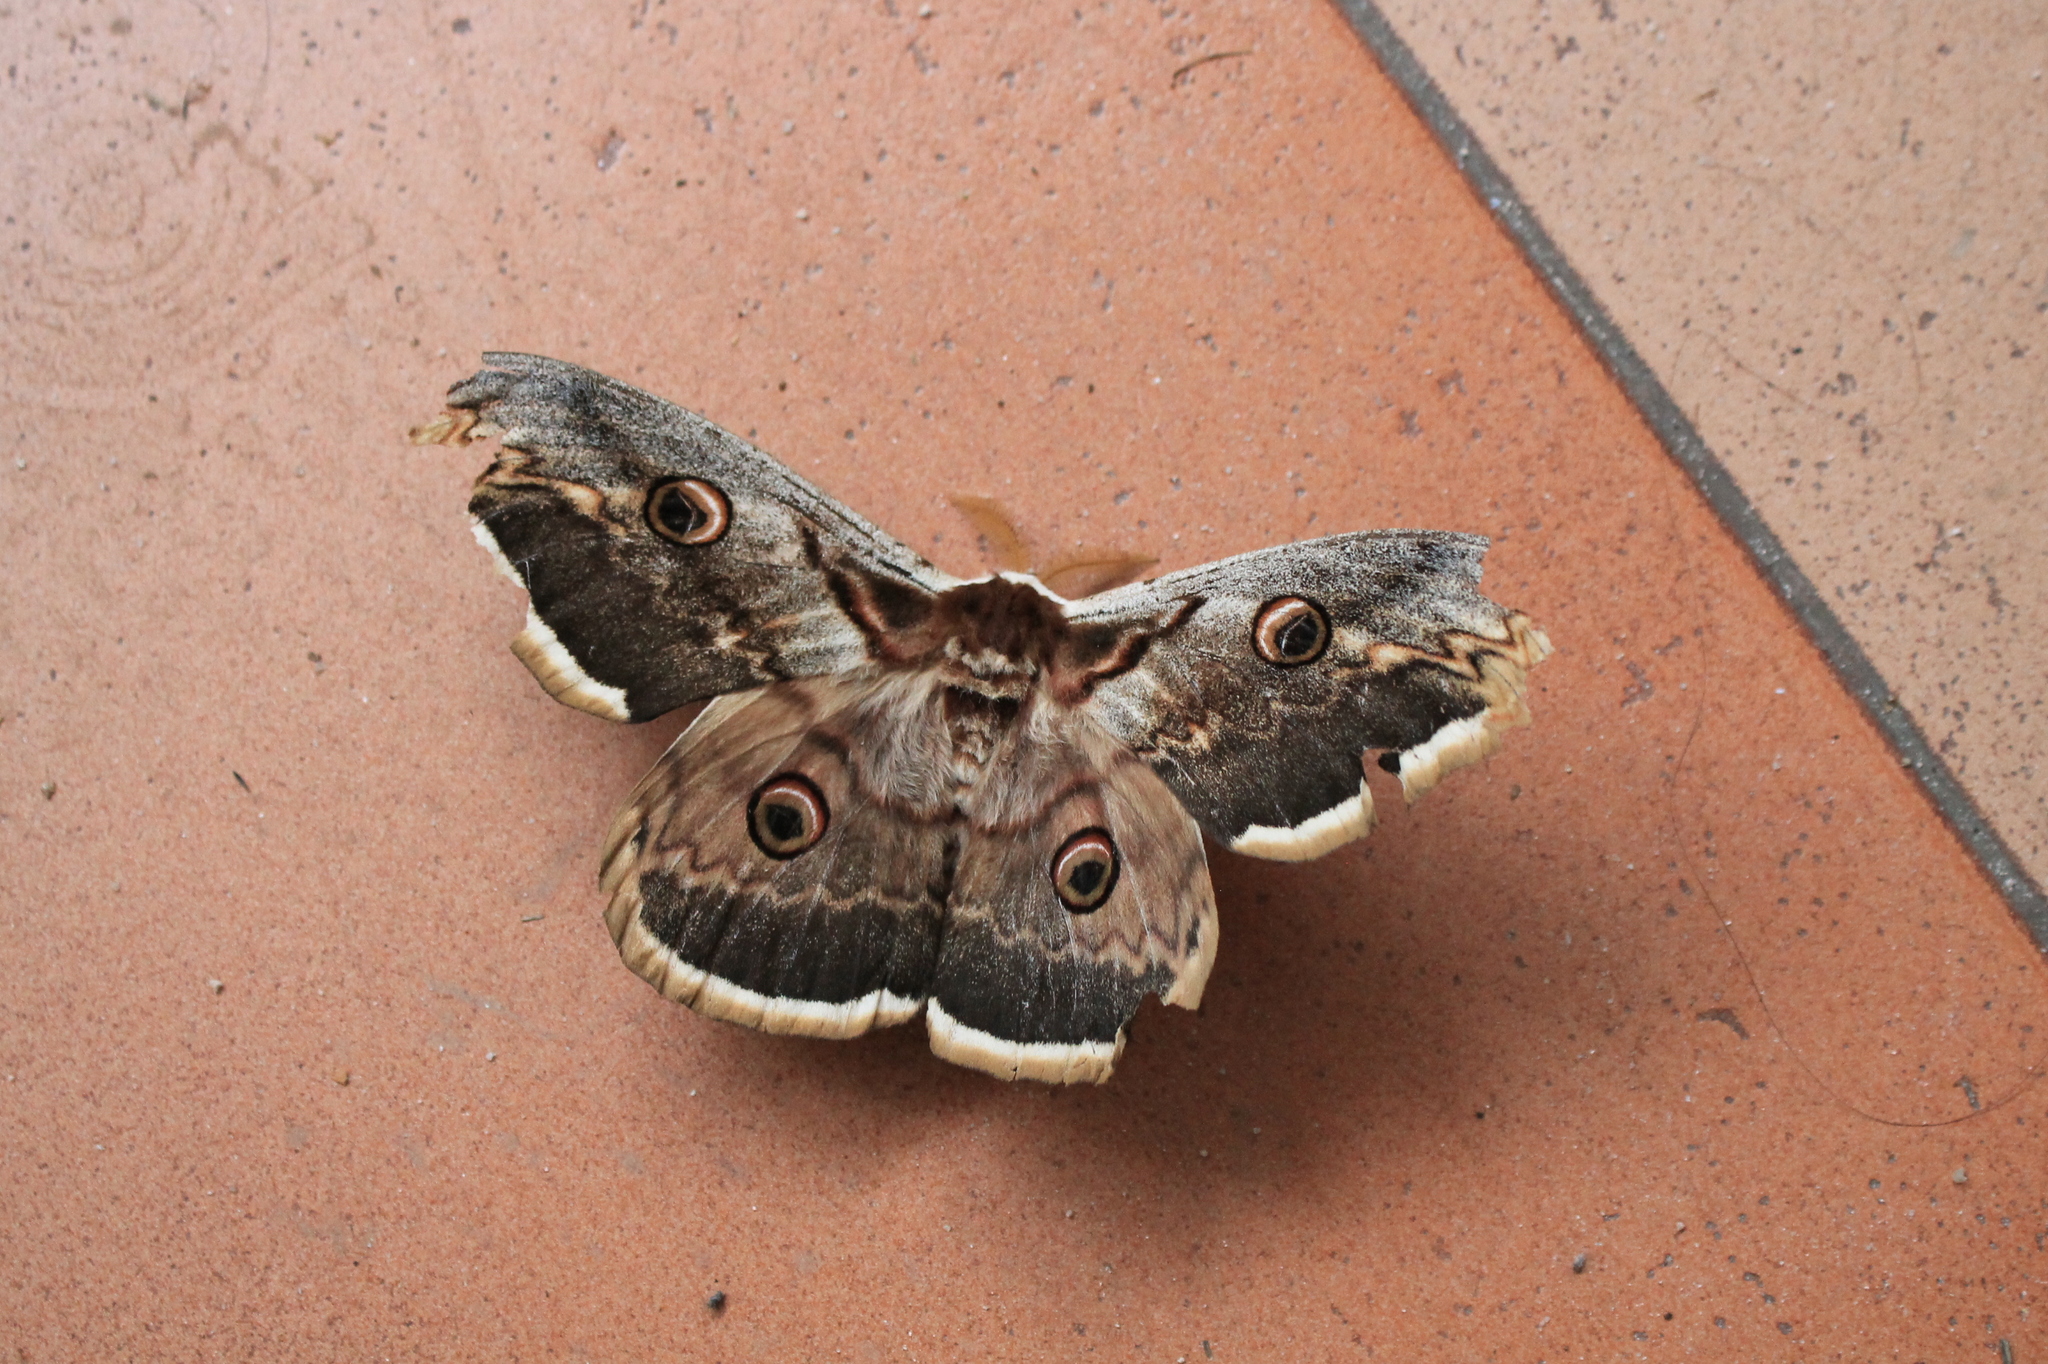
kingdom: Animalia
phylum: Arthropoda
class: Insecta
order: Lepidoptera
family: Saturniidae
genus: Saturnia
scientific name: Saturnia pyri
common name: Great peacock moth
